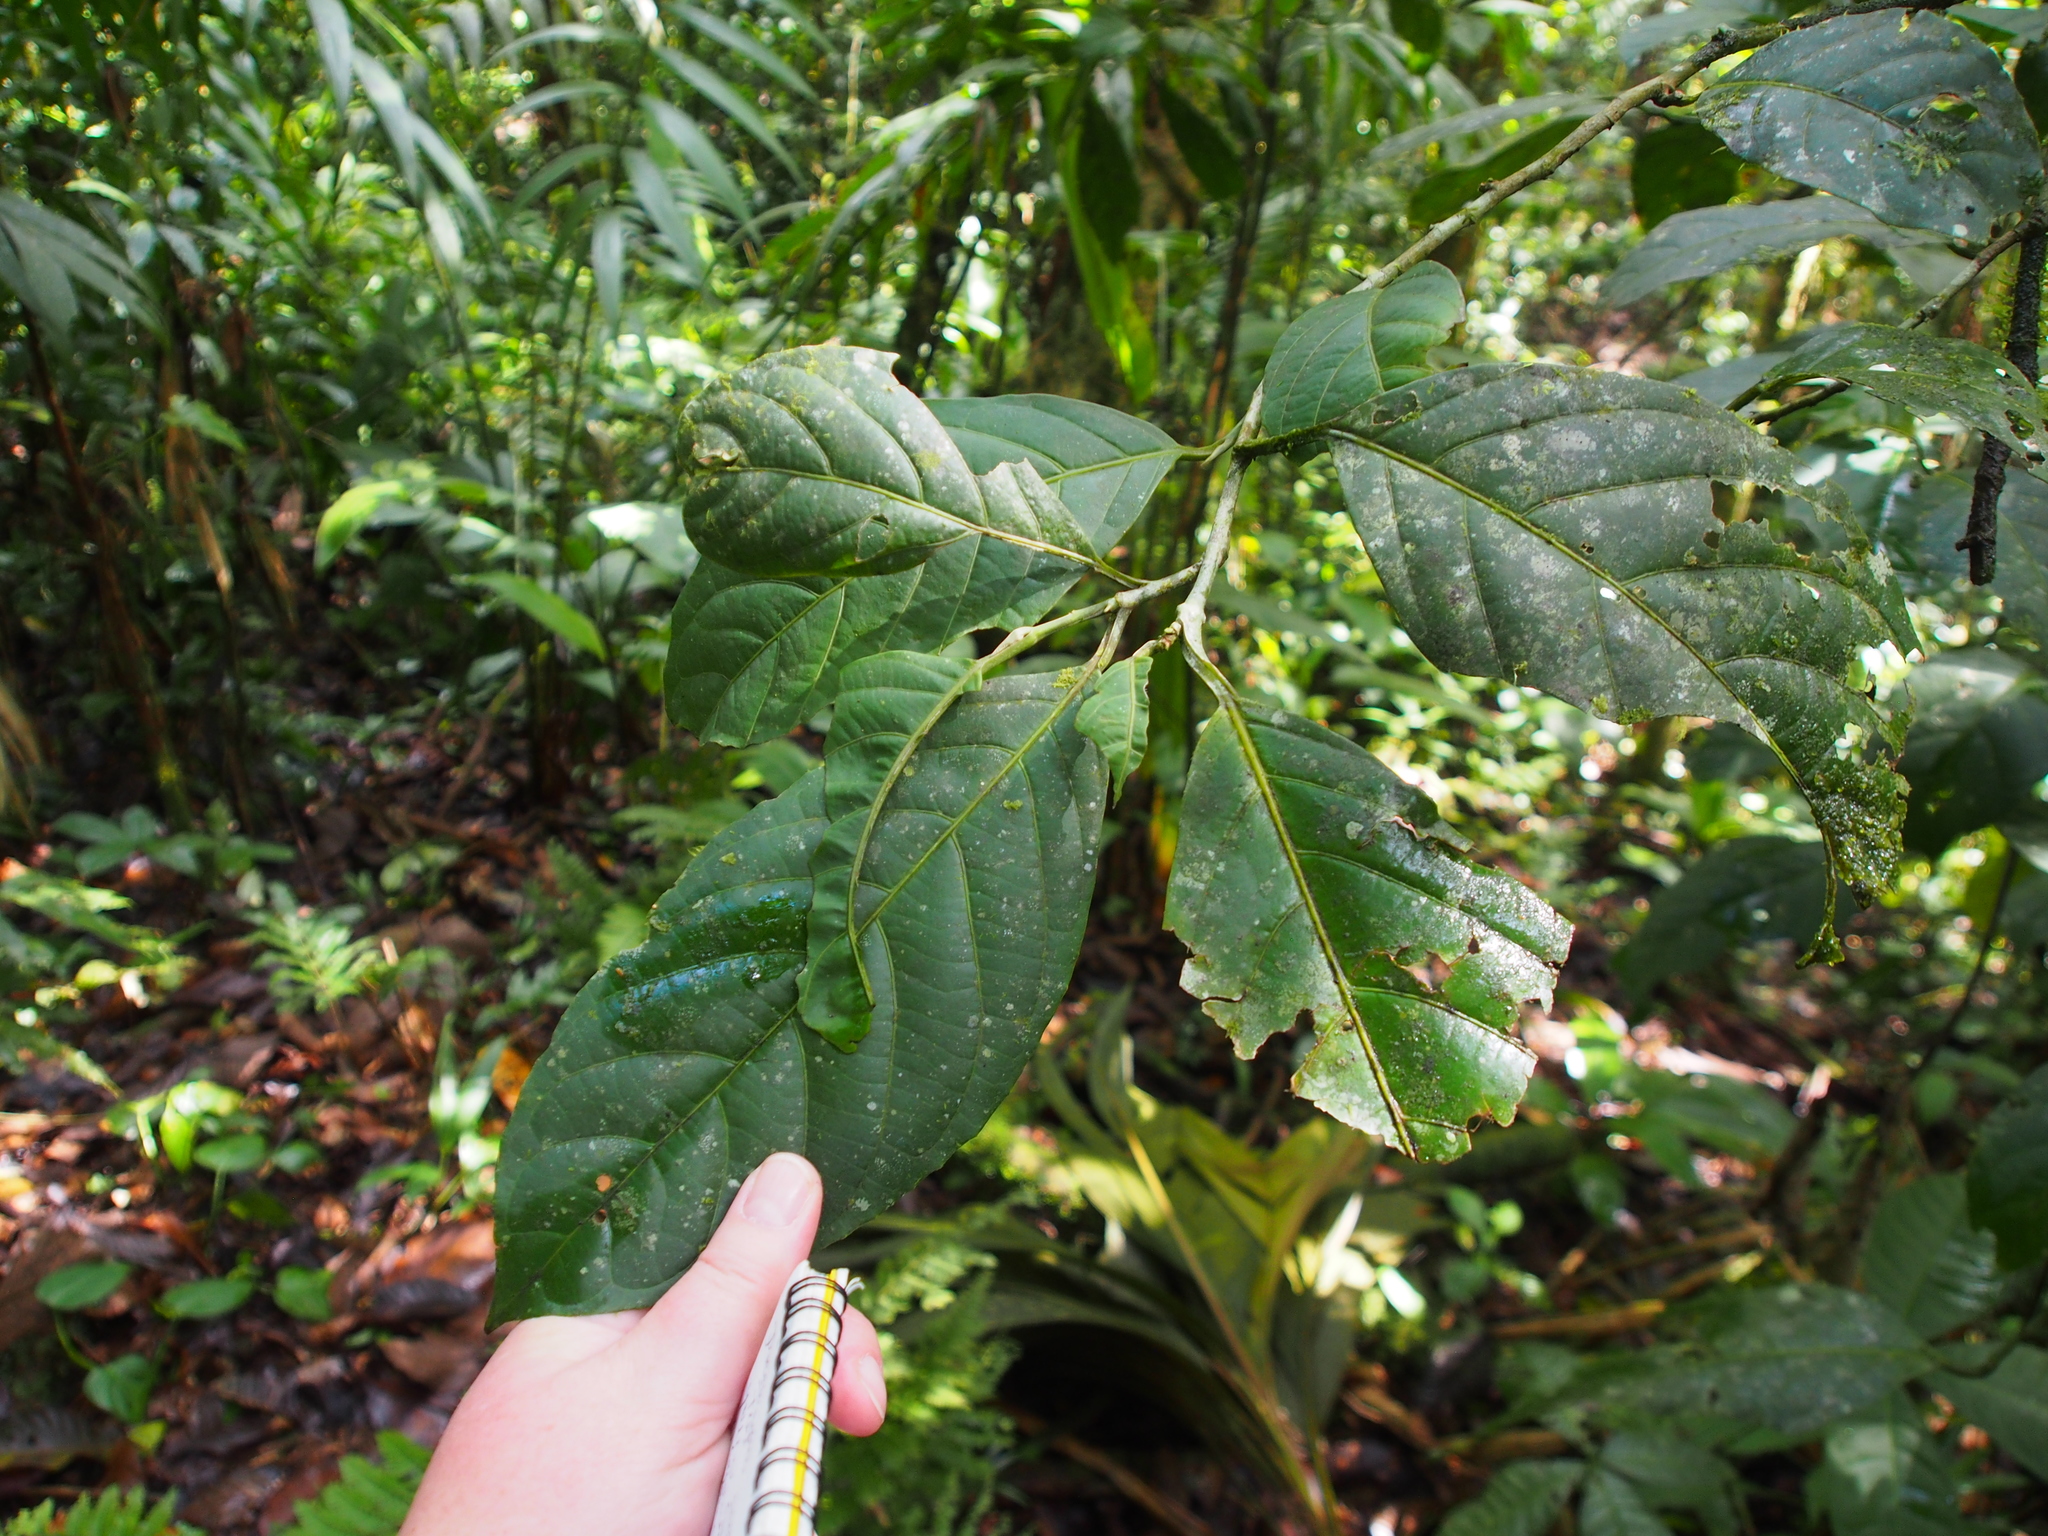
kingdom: Plantae
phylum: Tracheophyta
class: Magnoliopsida
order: Metteniusales
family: Metteniusaceae
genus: Calatola
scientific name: Calatola costaricensis
